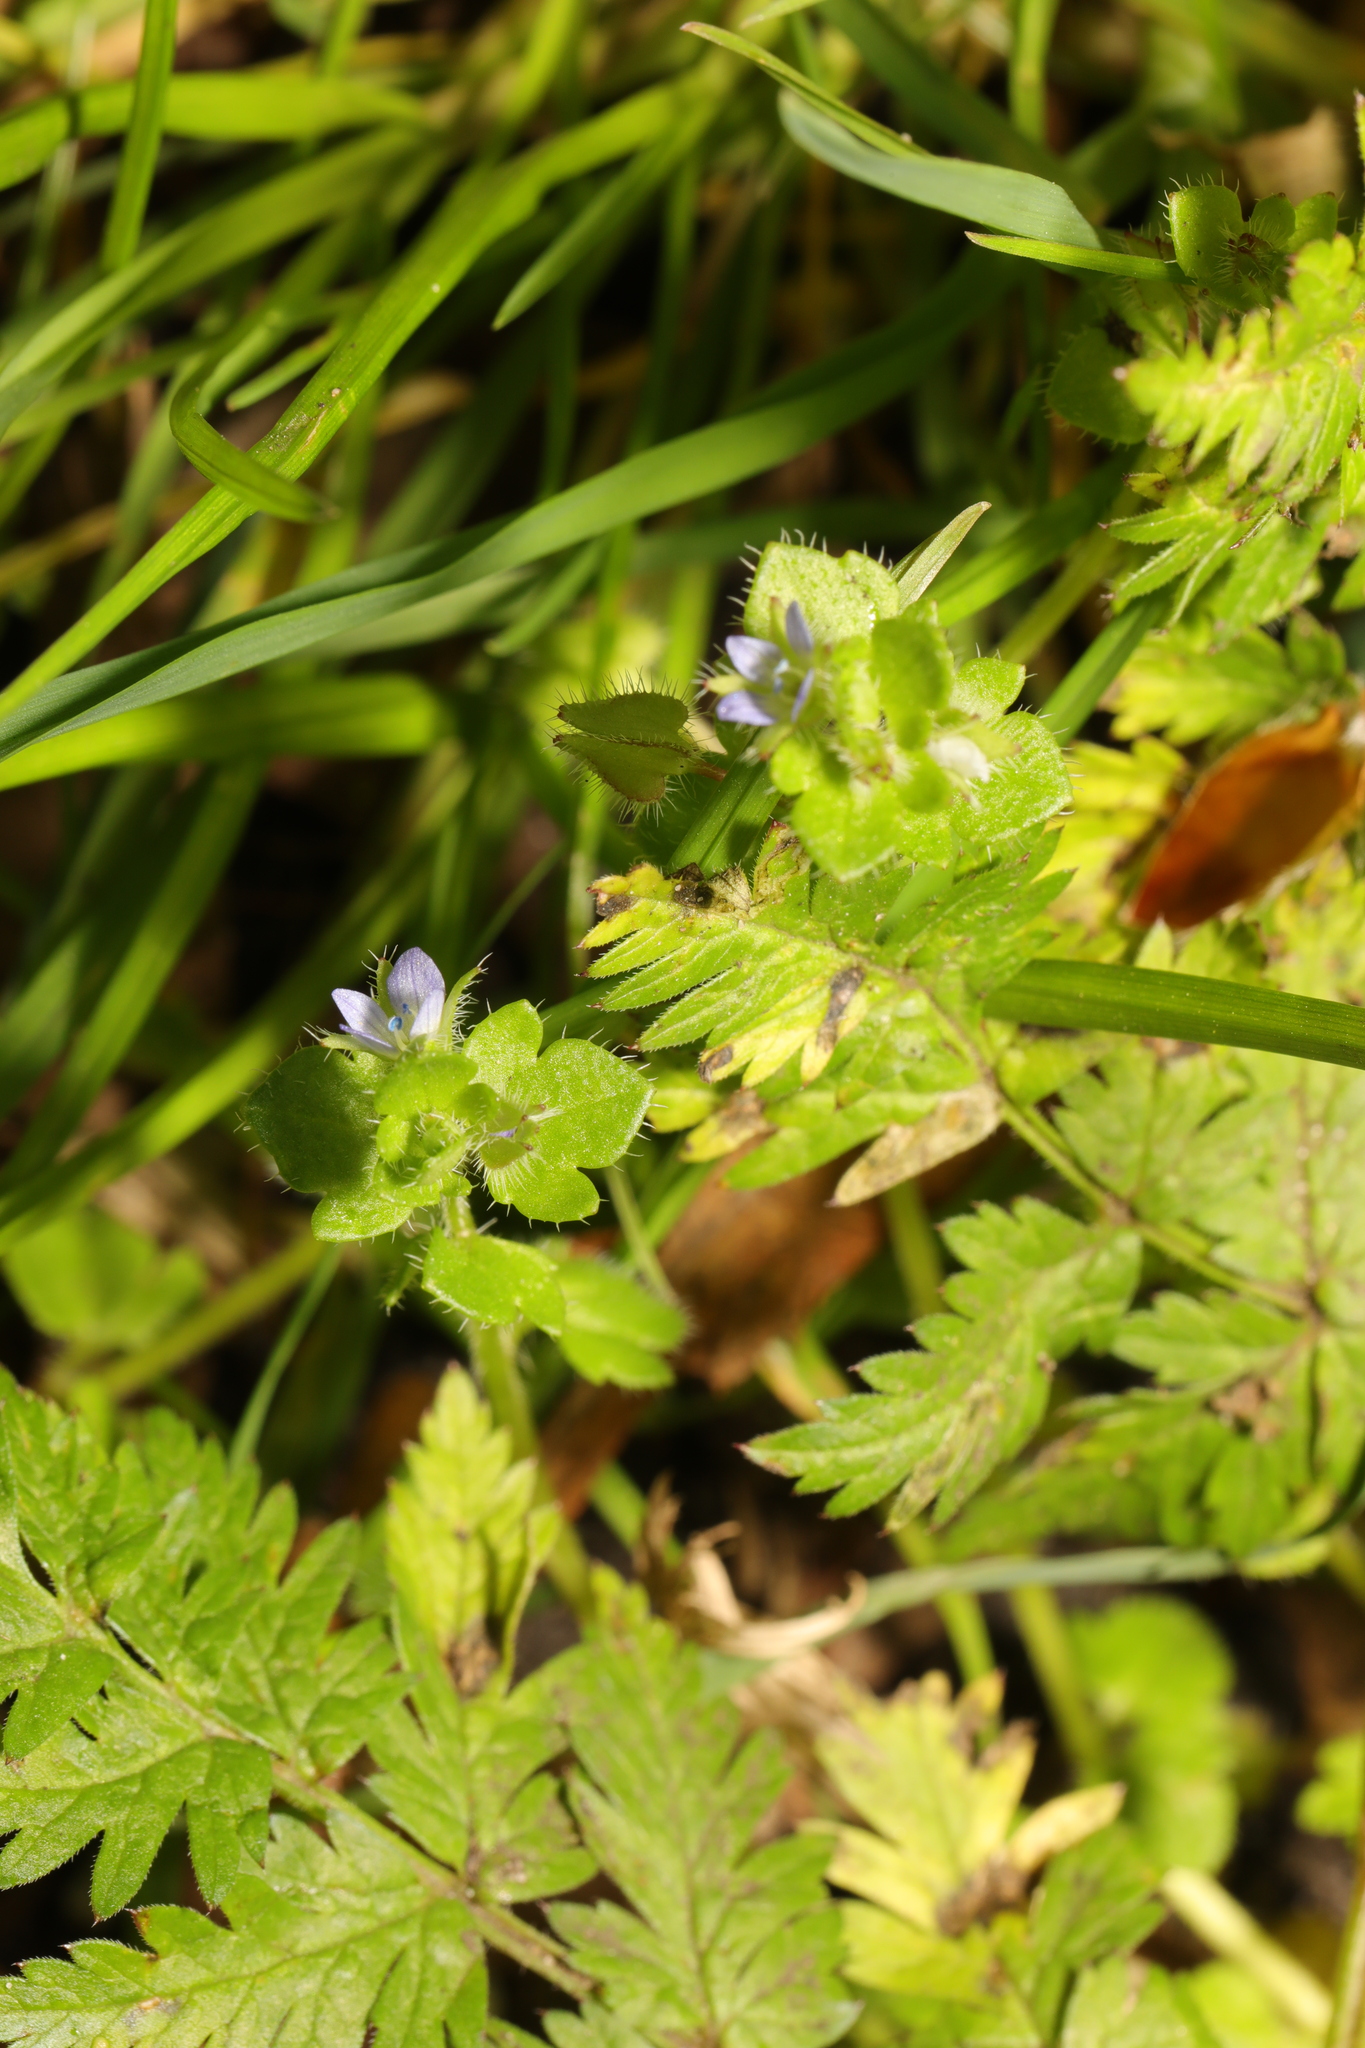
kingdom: Plantae
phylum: Tracheophyta
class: Magnoliopsida
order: Lamiales
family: Plantaginaceae
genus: Veronica
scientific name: Veronica hederifolia
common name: Ivy-leaved speedwell
